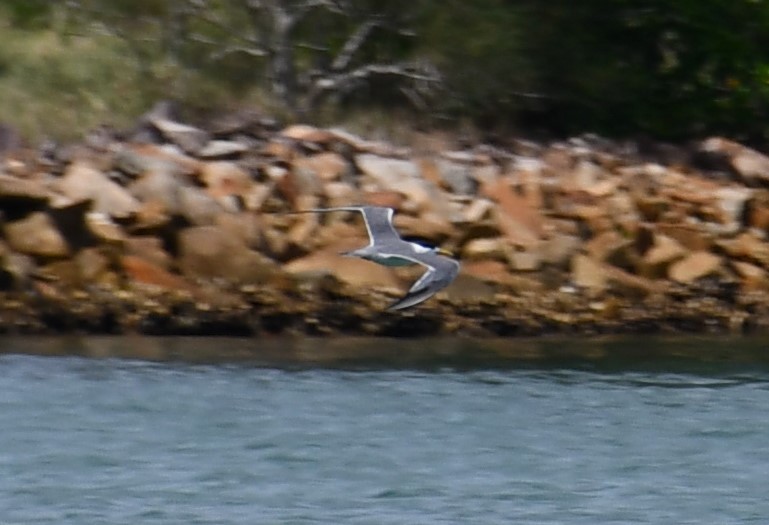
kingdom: Animalia
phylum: Chordata
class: Aves
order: Charadriiformes
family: Laridae
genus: Thalasseus
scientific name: Thalasseus bergii
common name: Greater crested tern
